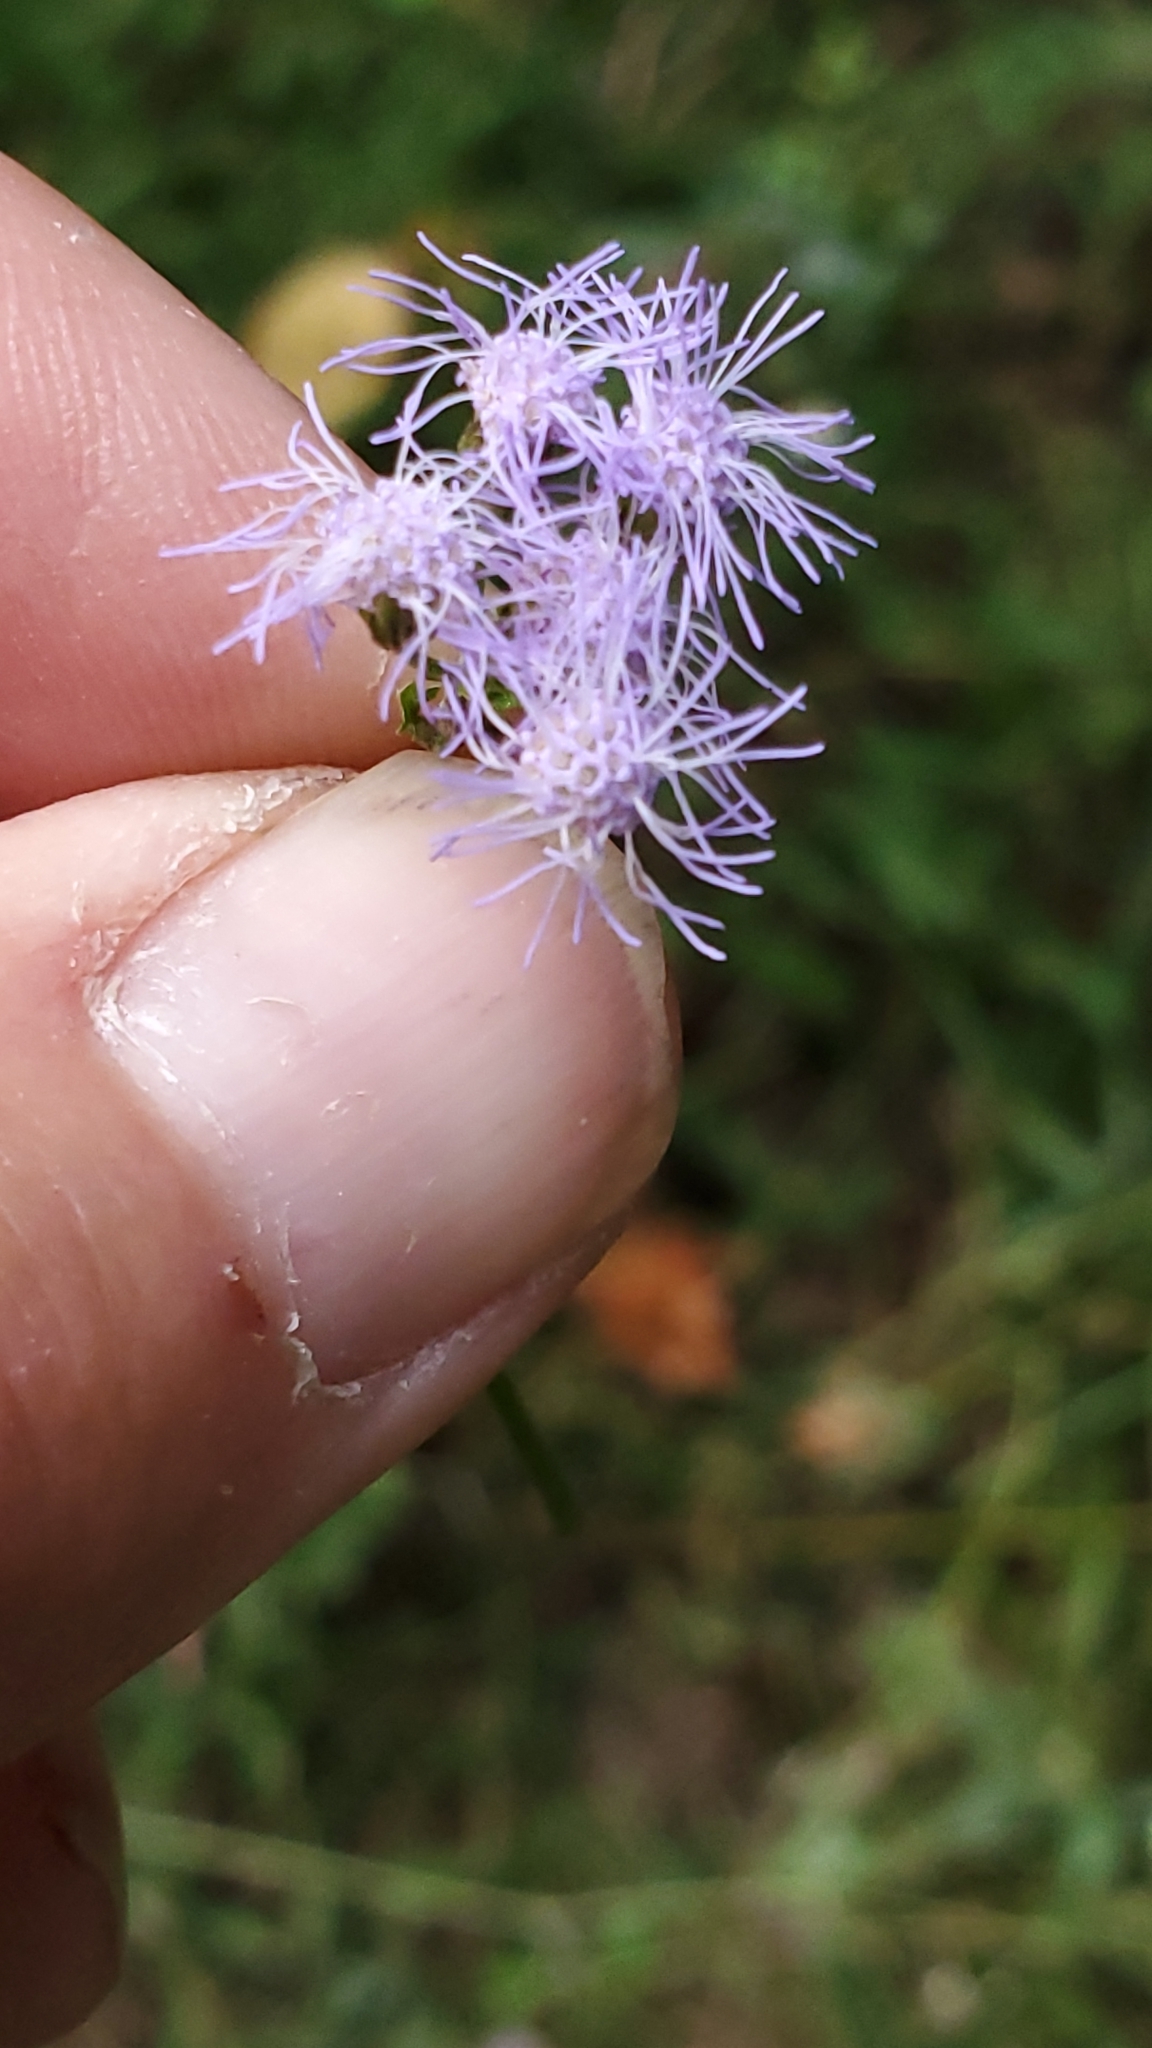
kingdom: Plantae
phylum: Tracheophyta
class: Magnoliopsida
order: Asterales
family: Asteraceae
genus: Conoclinium
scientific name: Conoclinium coelestinum
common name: Blue mistflower
